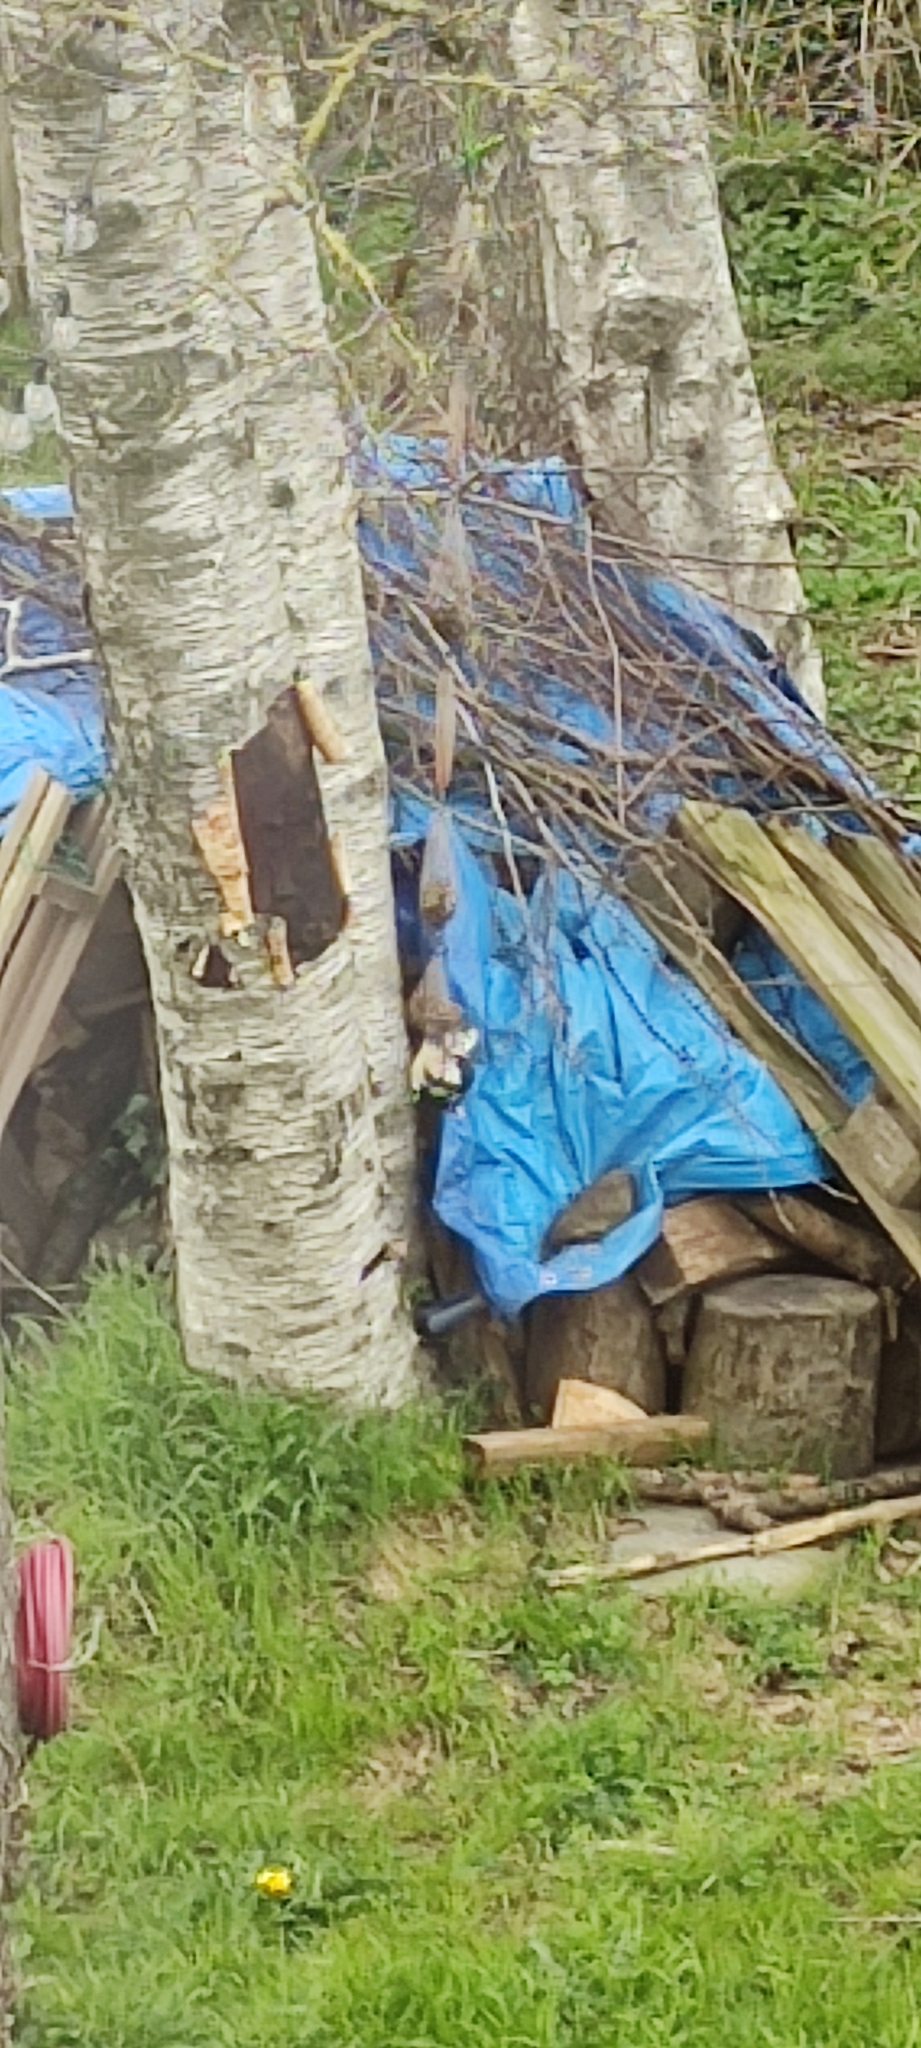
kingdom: Animalia
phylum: Chordata
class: Aves
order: Piciformes
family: Picidae
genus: Dendrocopos
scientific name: Dendrocopos major
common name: Great spotted woodpecker
